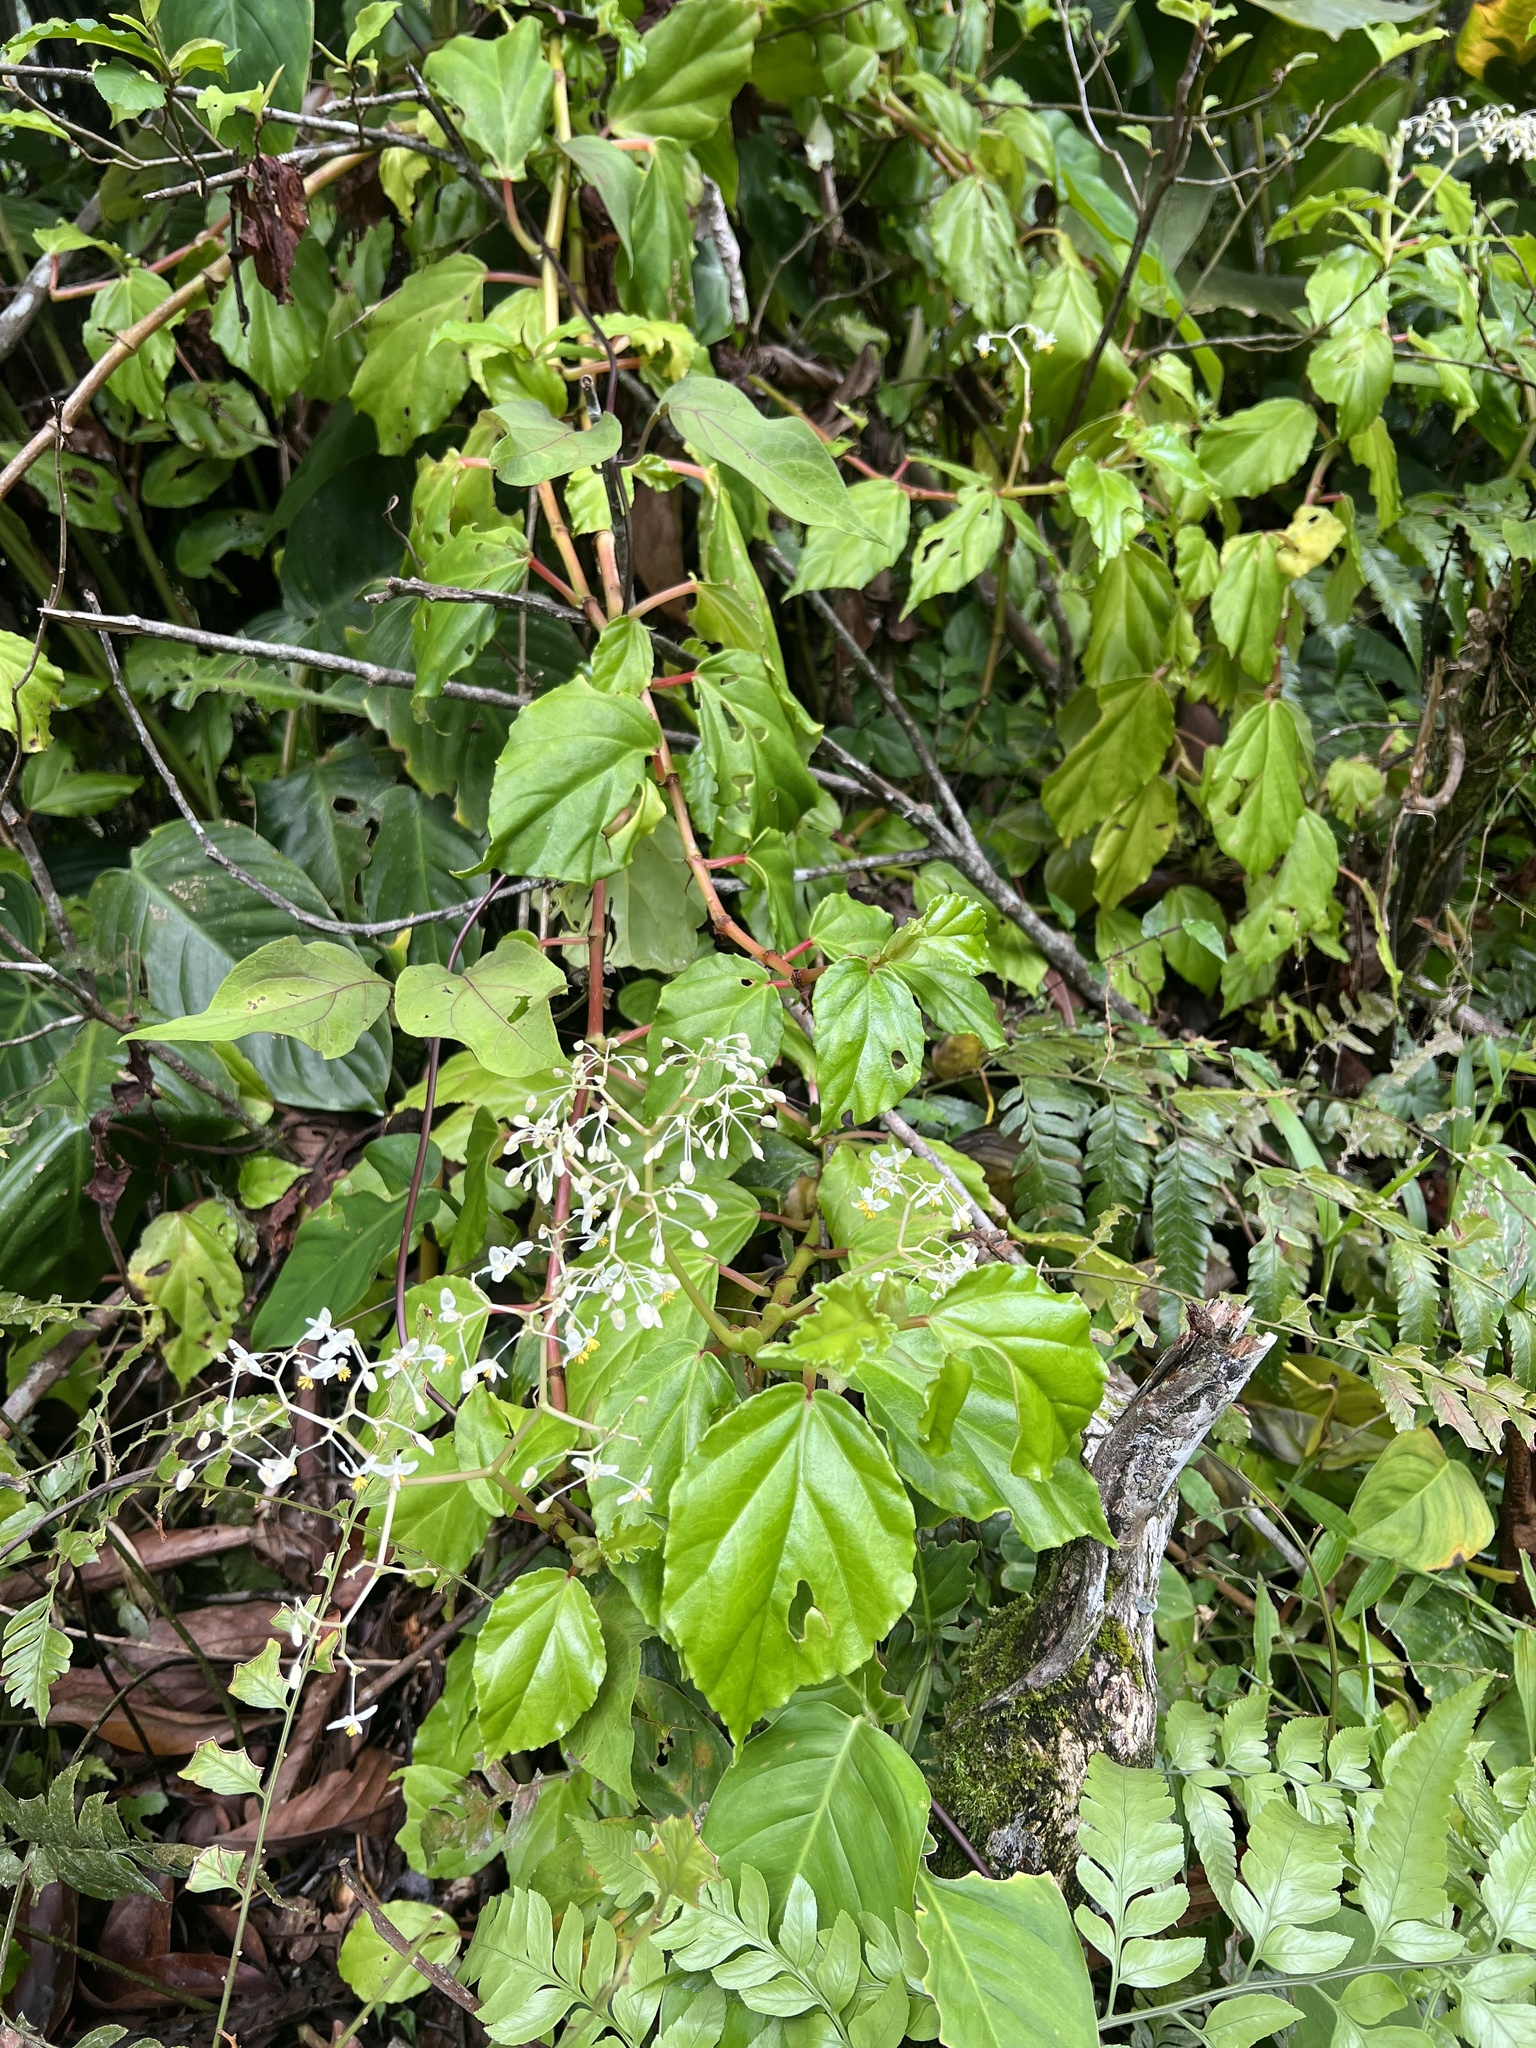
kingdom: Plantae
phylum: Tracheophyta
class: Magnoliopsida
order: Cucurbitales
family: Begoniaceae
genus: Begonia
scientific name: Begonia glabra
